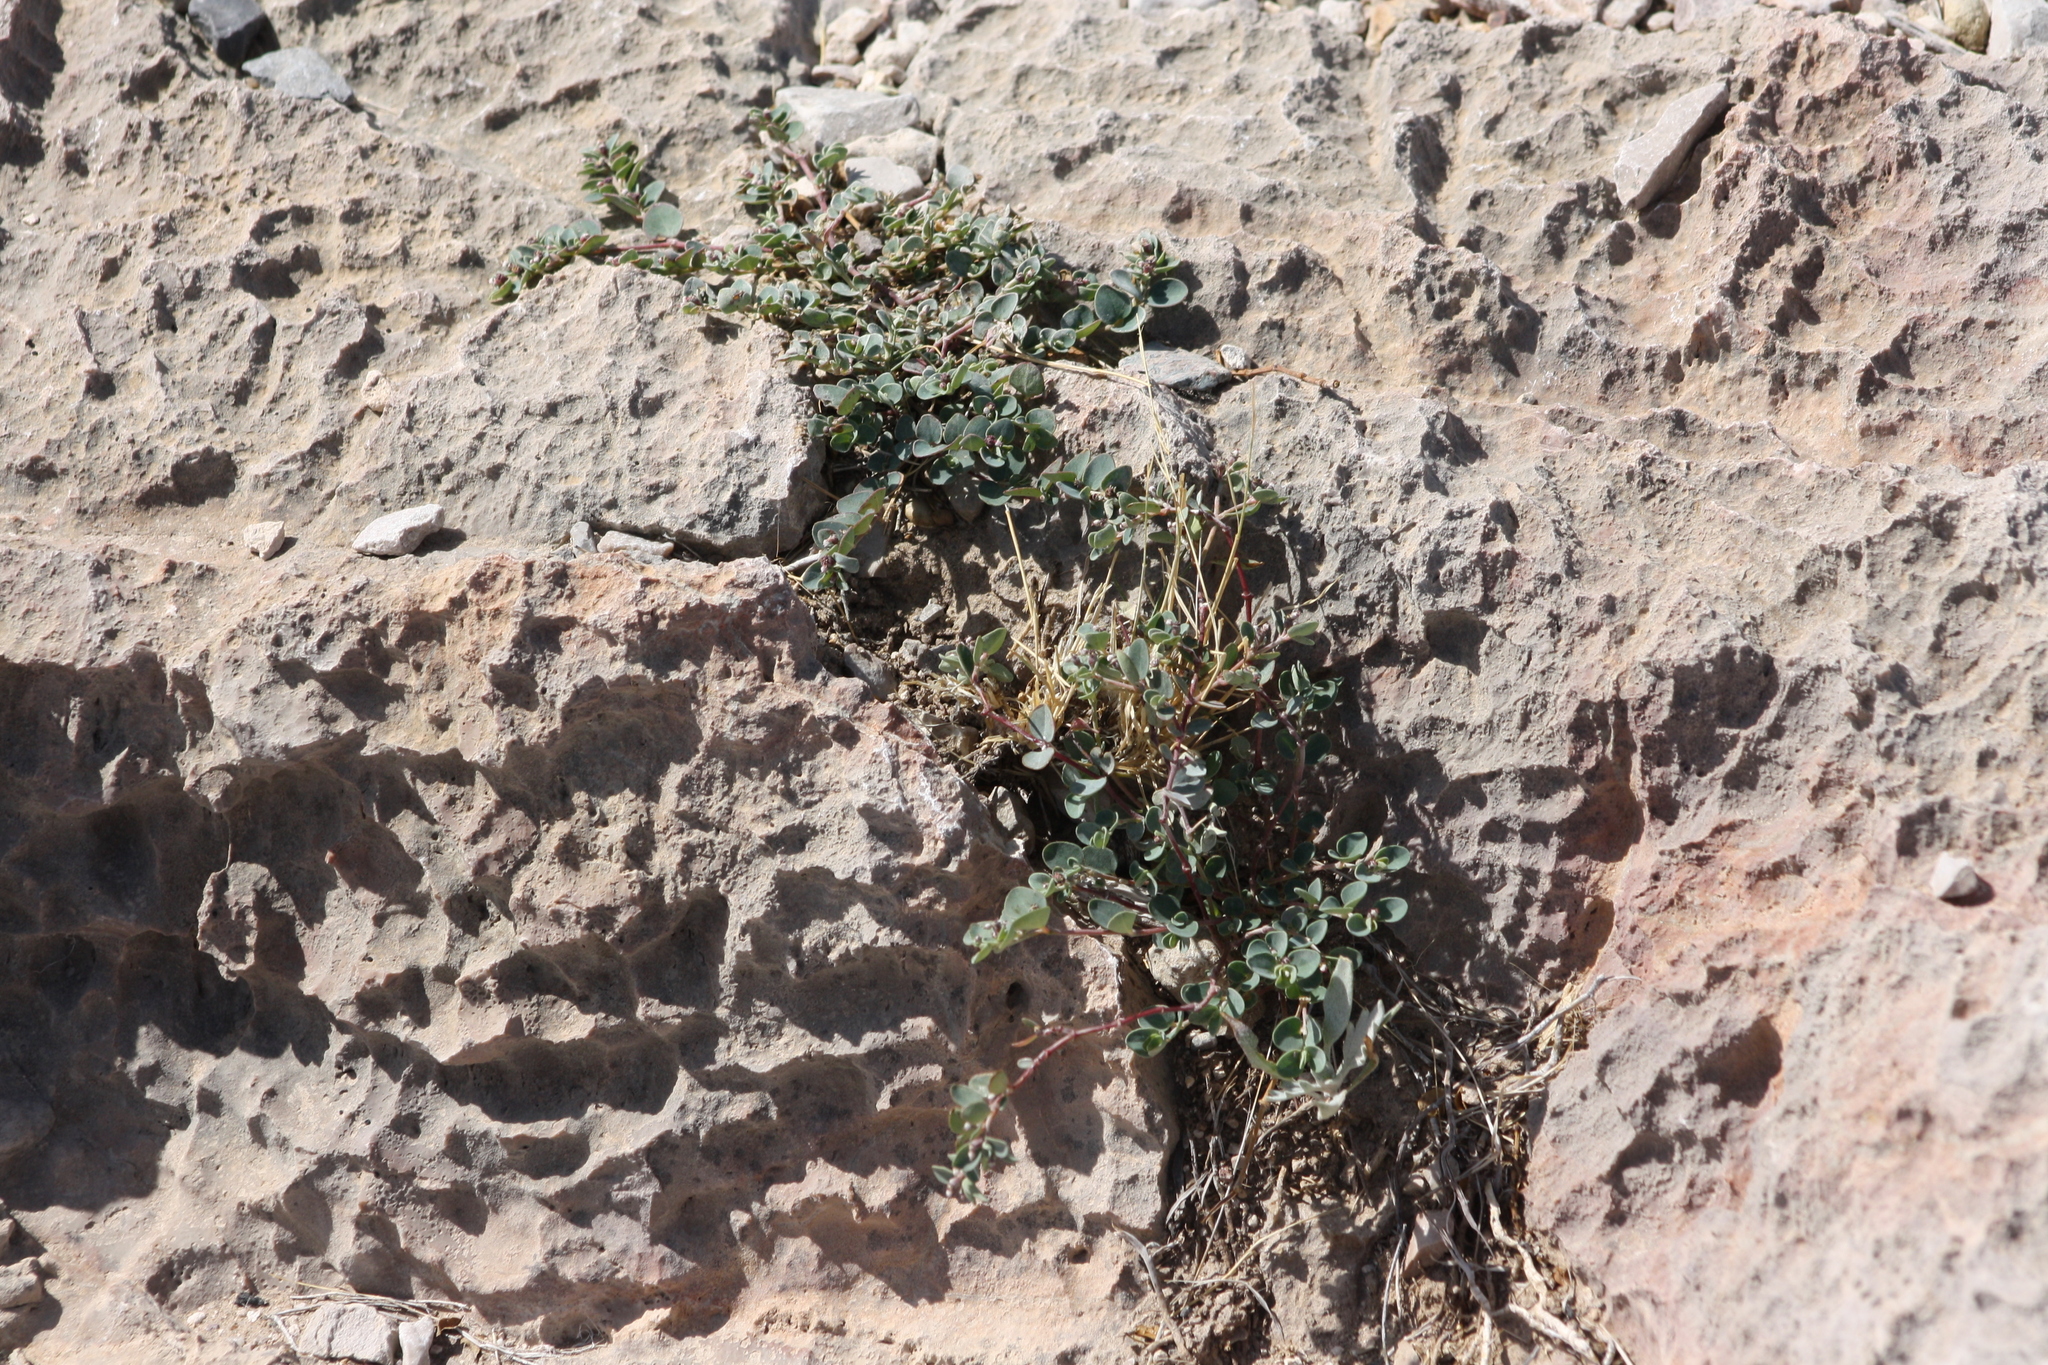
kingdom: Plantae
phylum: Tracheophyta
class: Magnoliopsida
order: Malpighiales
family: Euphorbiaceae
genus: Euphorbia
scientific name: Euphorbia cinerascens
